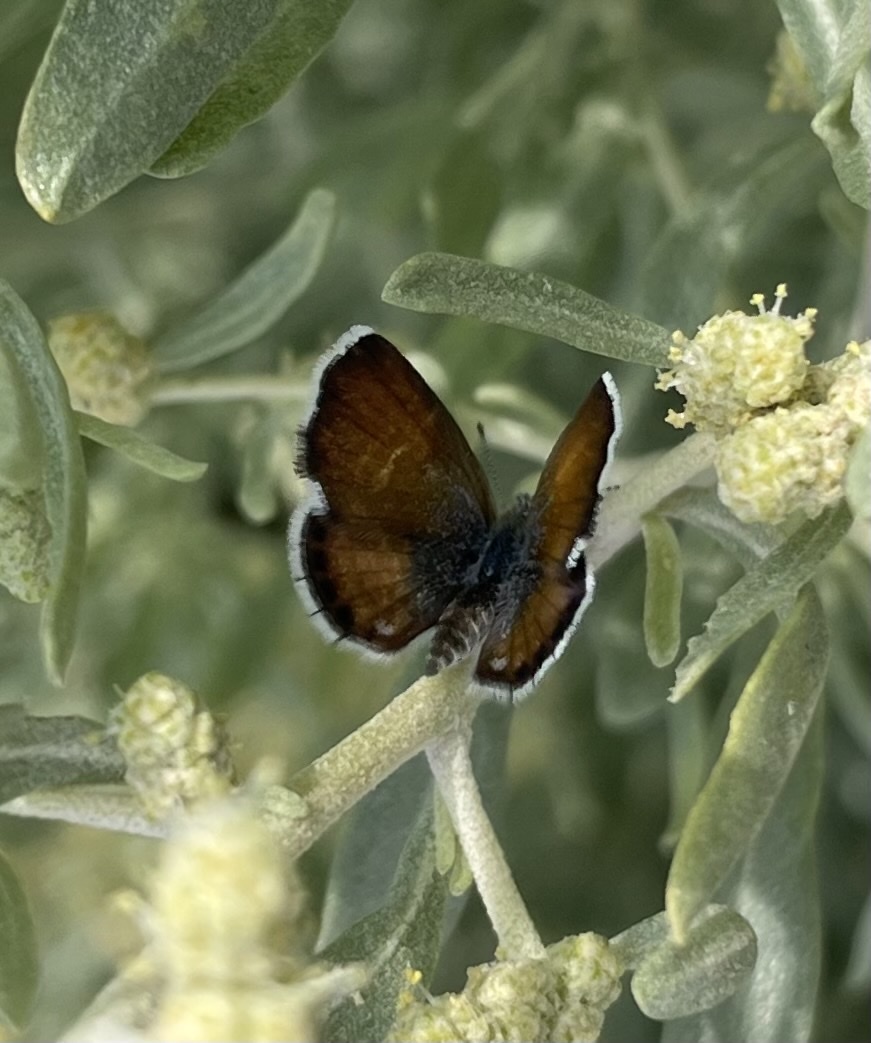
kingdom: Animalia
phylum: Arthropoda
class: Insecta
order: Lepidoptera
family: Lycaenidae
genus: Brephidium
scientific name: Brephidium exilis
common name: Pygmy blue
